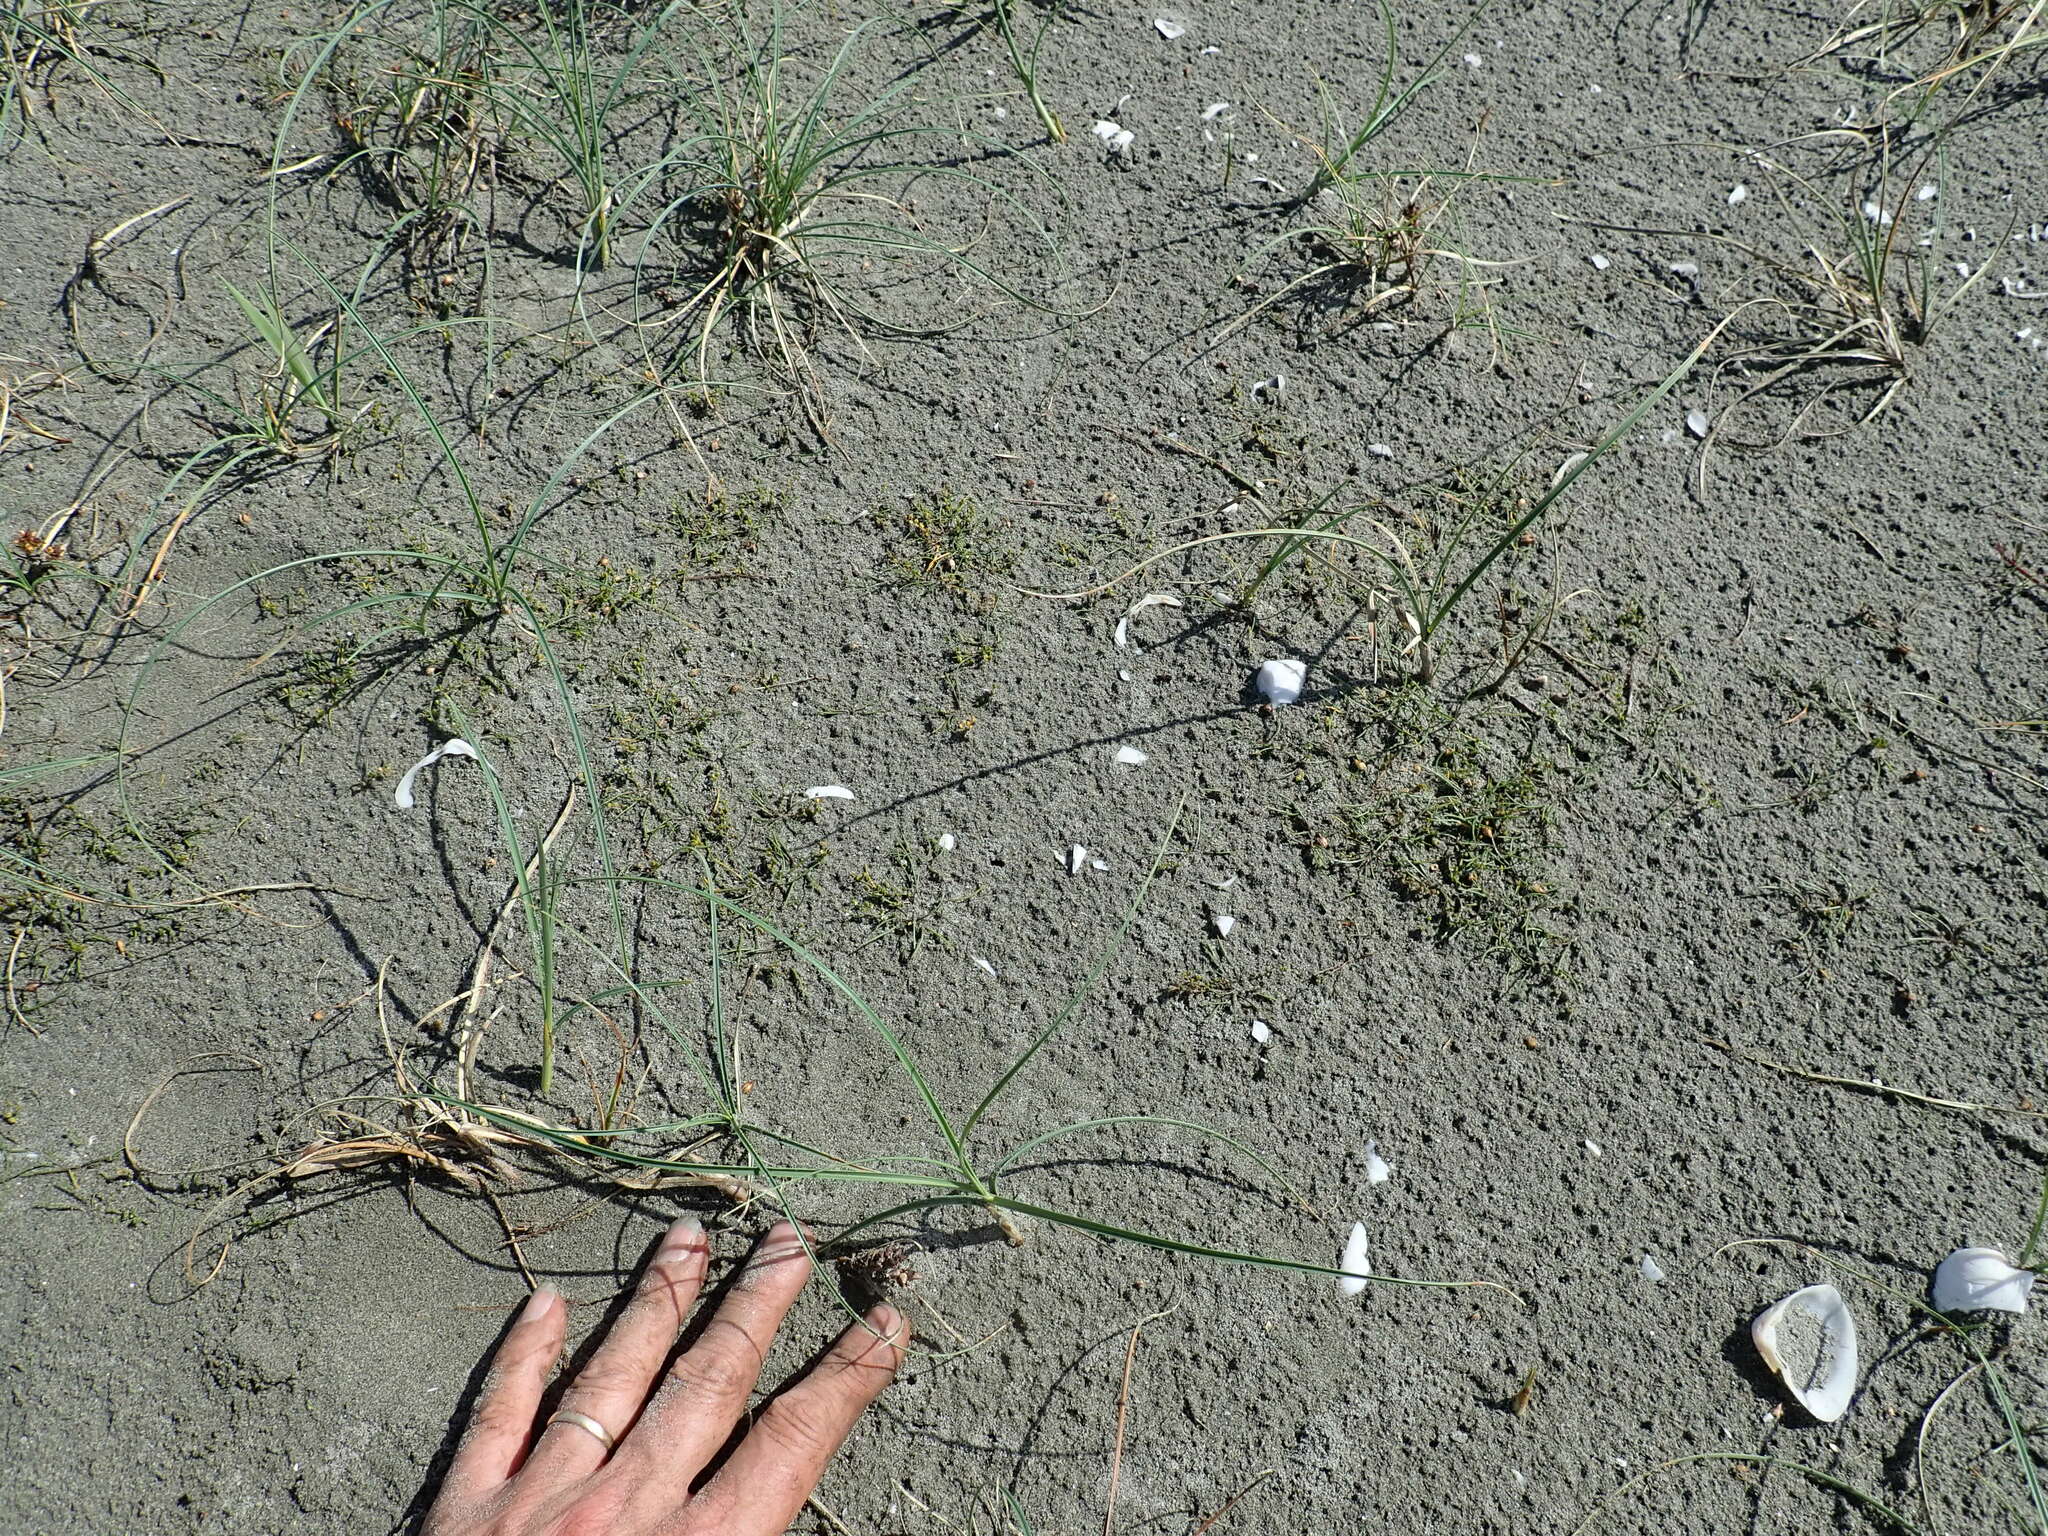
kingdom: Plantae
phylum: Tracheophyta
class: Liliopsida
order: Alismatales
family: Juncaginaceae
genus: Triglochin
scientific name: Triglochin striata
